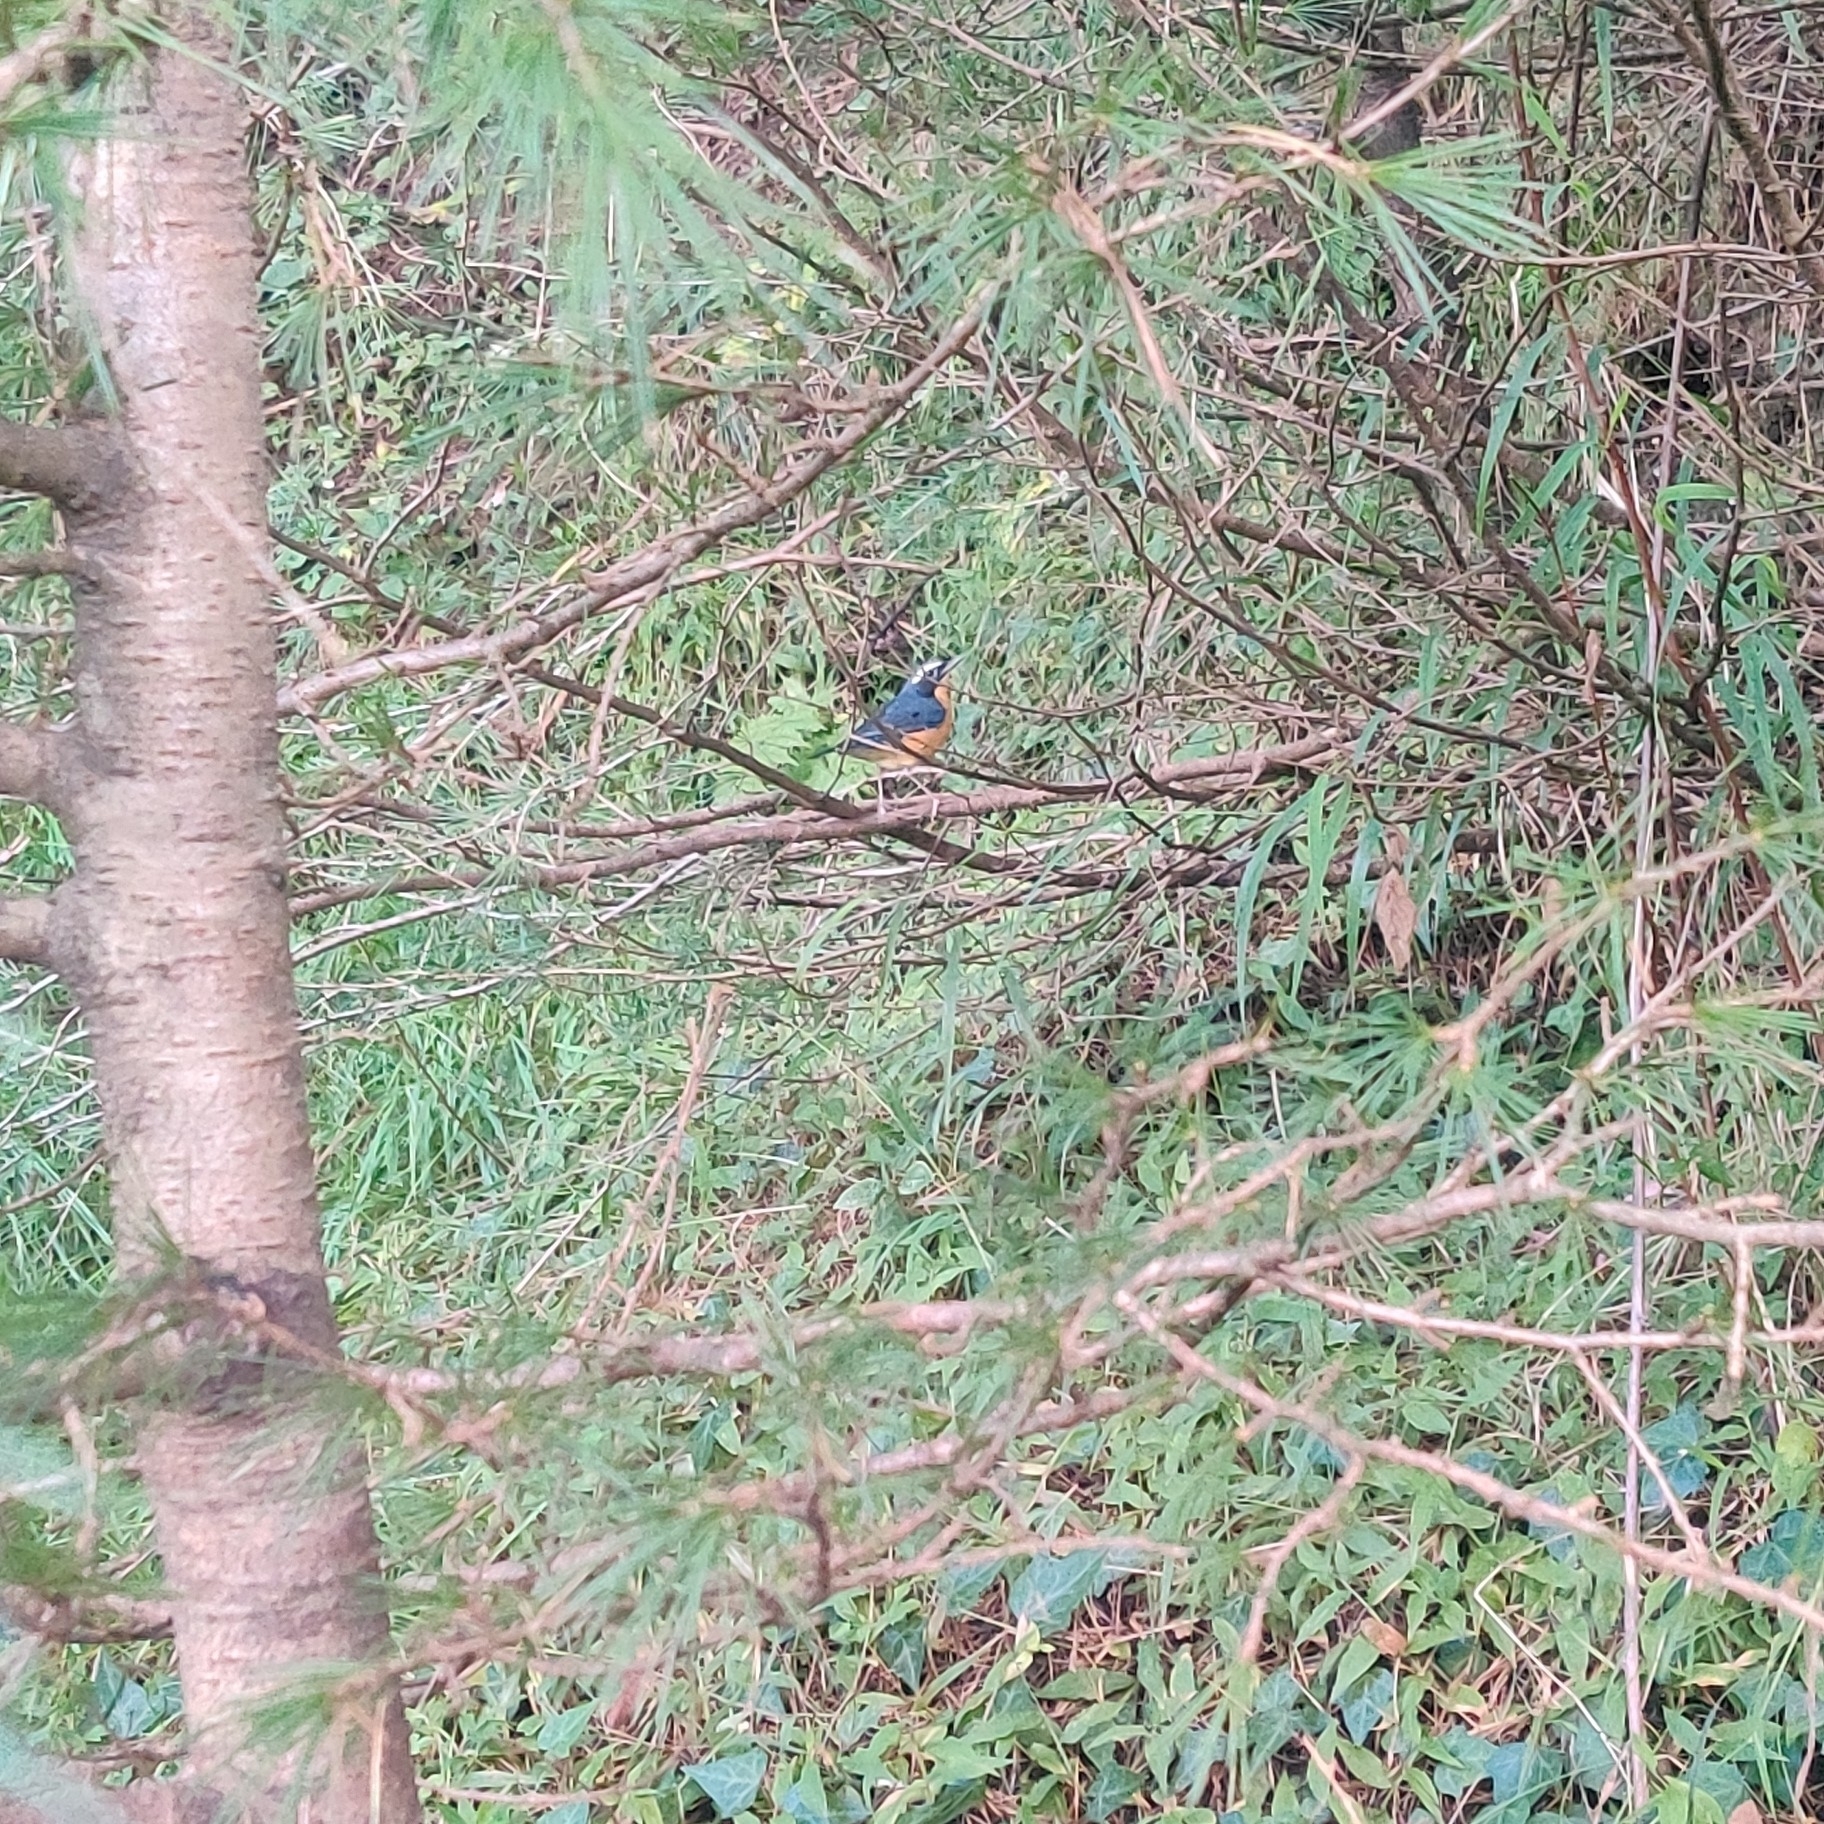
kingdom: Animalia
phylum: Chordata
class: Aves
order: Passeriformes
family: Muscicapidae
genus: Luscinia
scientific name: Luscinia brunnea
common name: Indian blue robin
